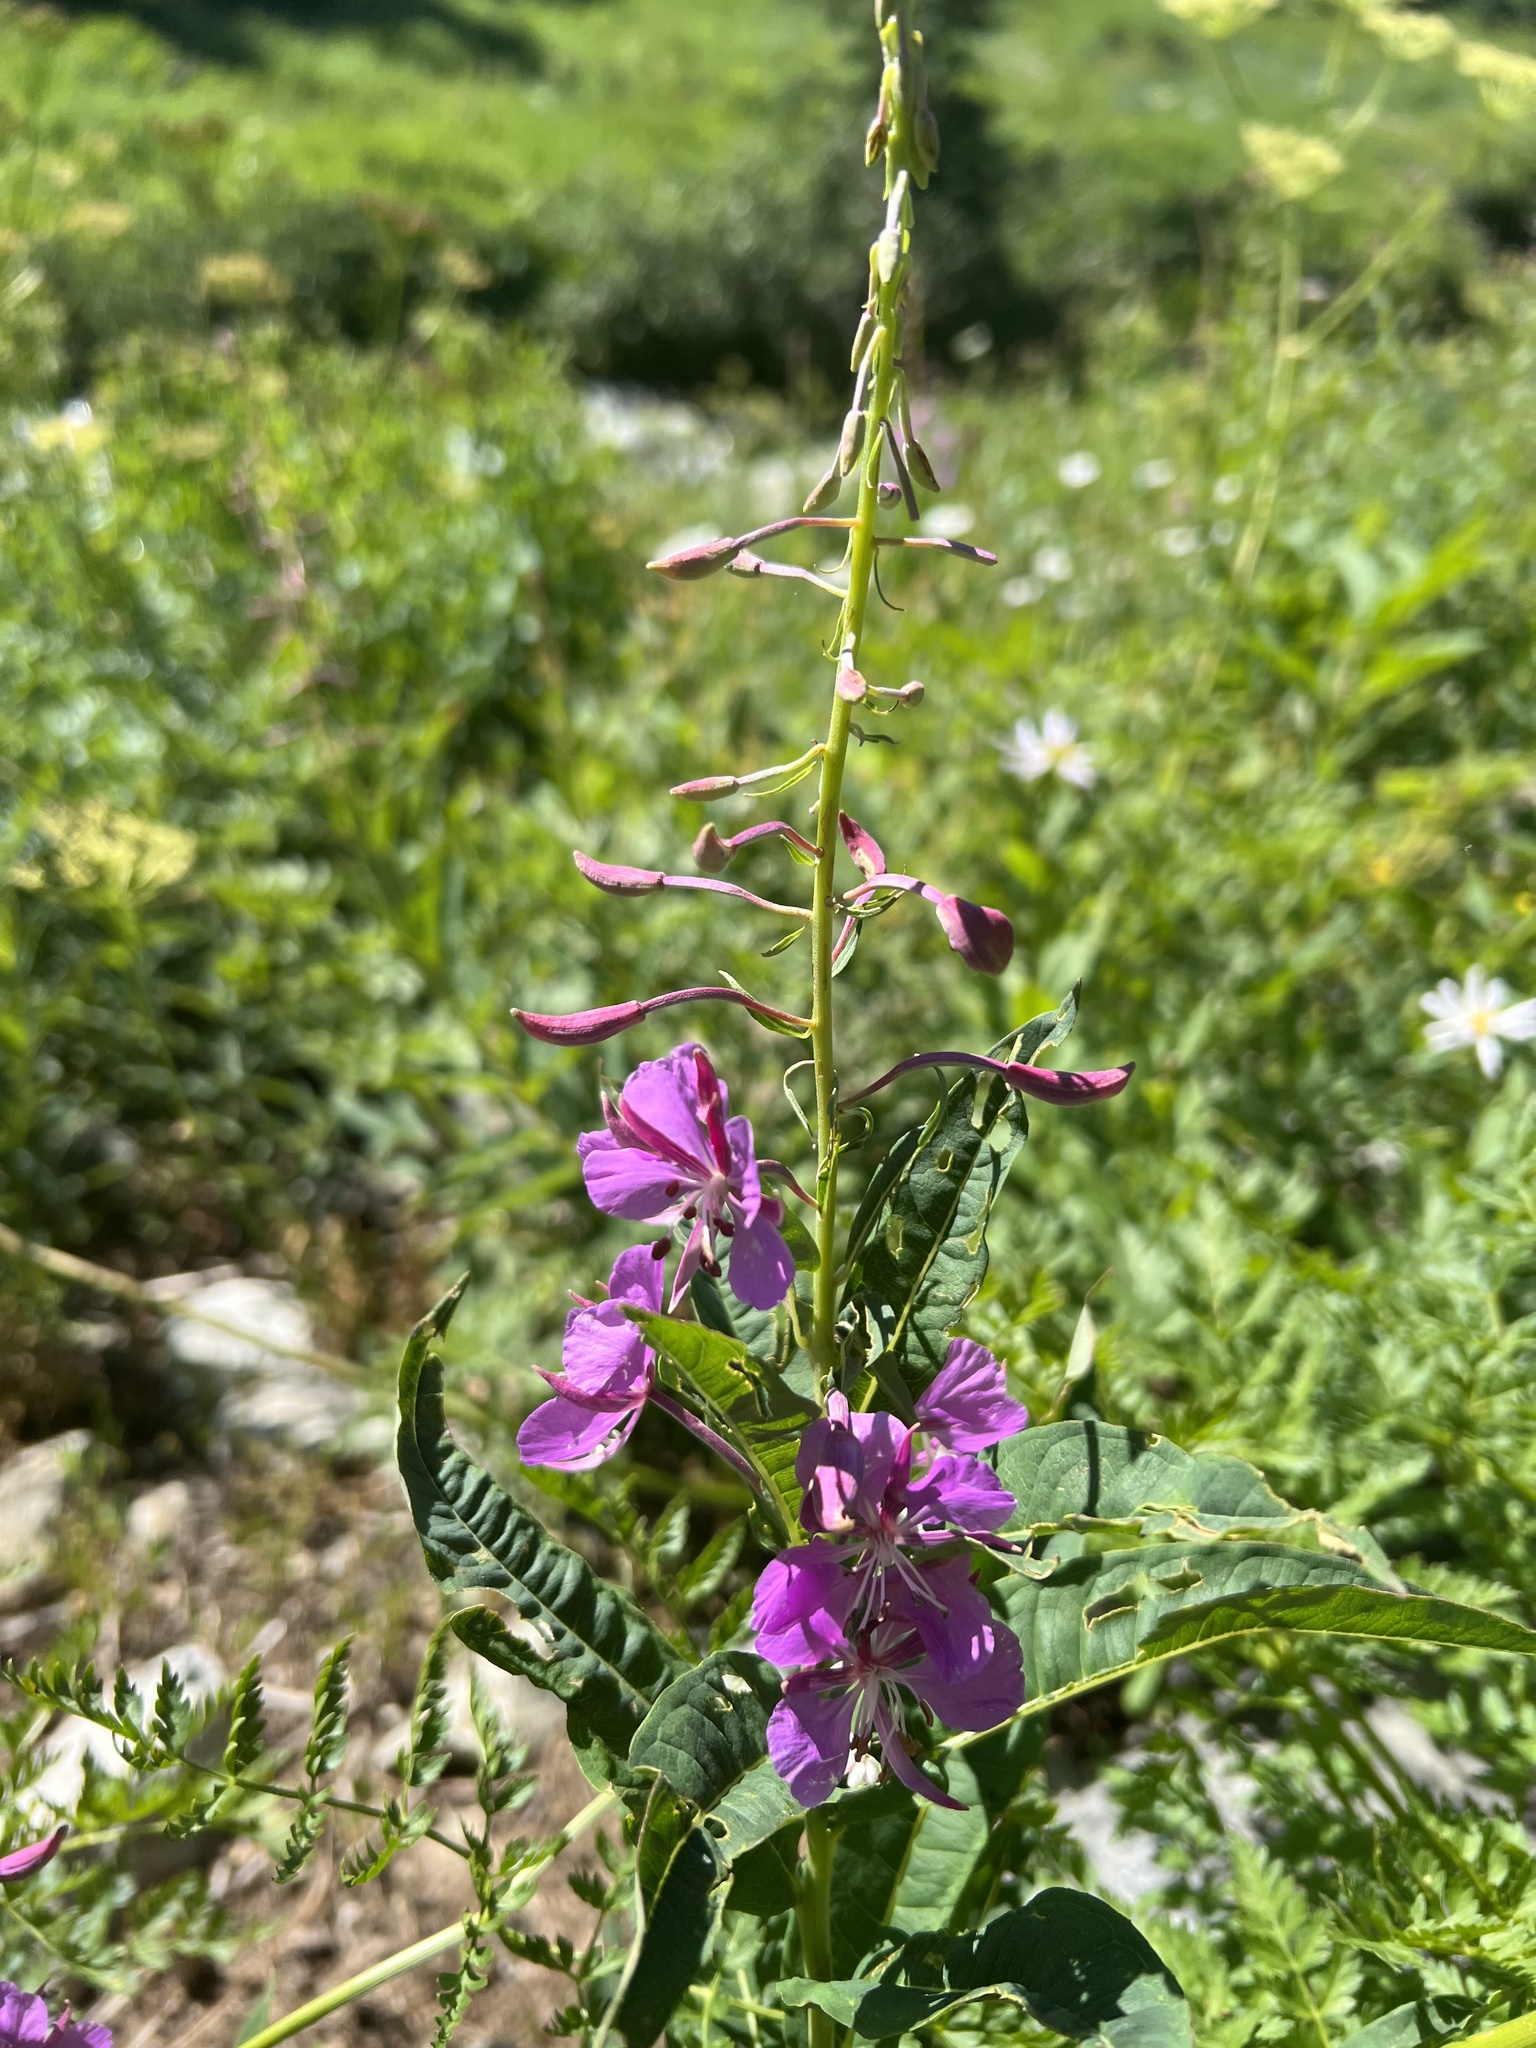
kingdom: Plantae
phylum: Tracheophyta
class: Magnoliopsida
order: Myrtales
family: Onagraceae
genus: Chamaenerion
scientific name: Chamaenerion angustifolium
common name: Fireweed
